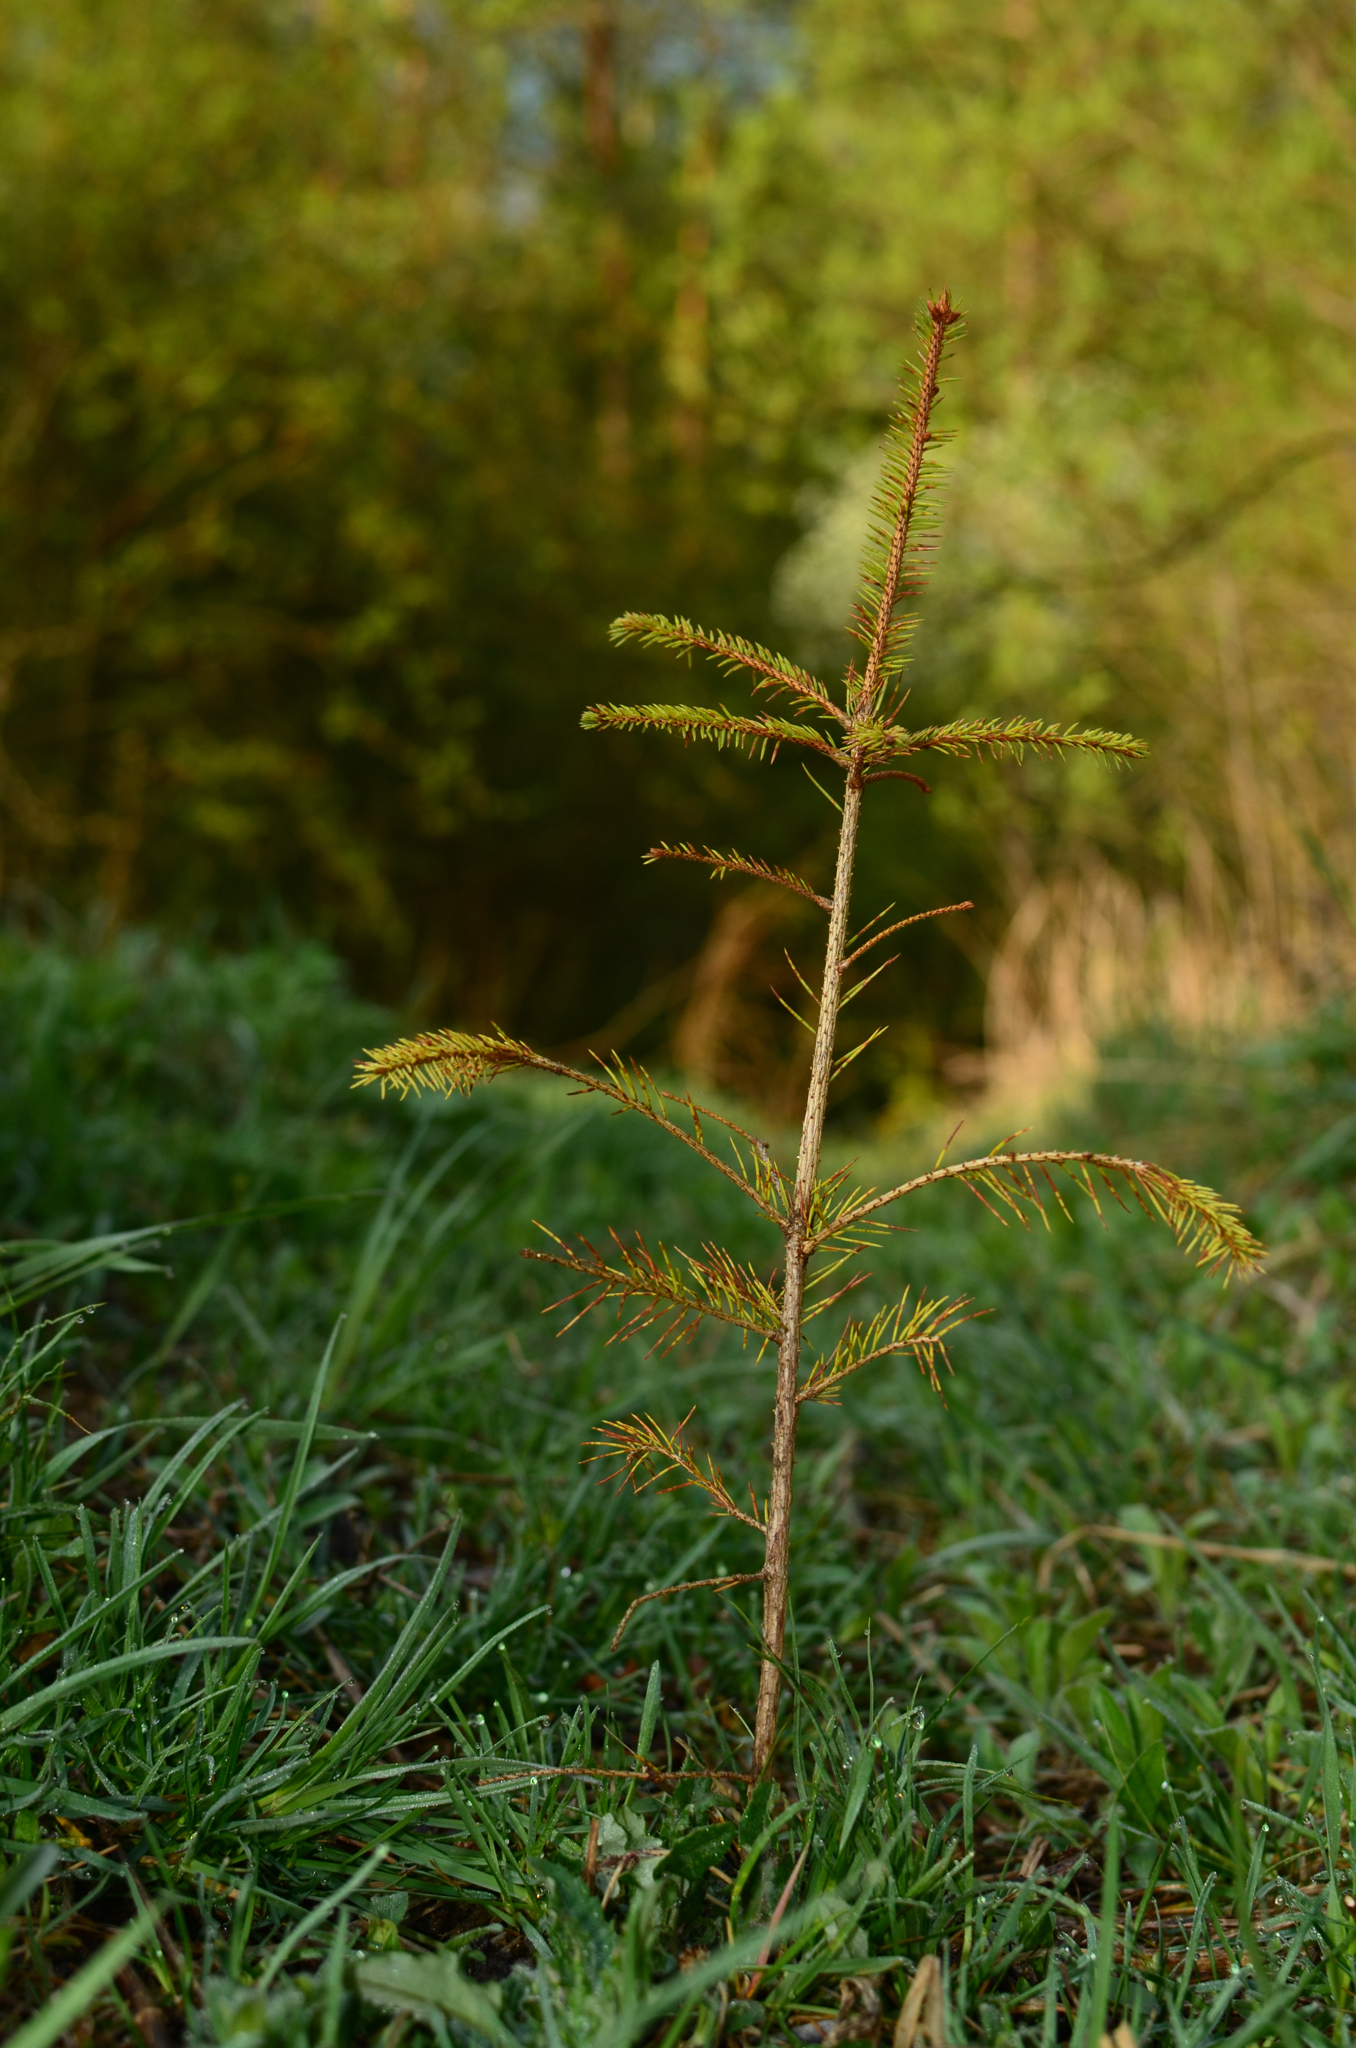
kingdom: Plantae
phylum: Tracheophyta
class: Pinopsida
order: Pinales
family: Pinaceae
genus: Picea
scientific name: Picea abies
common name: Norway spruce
